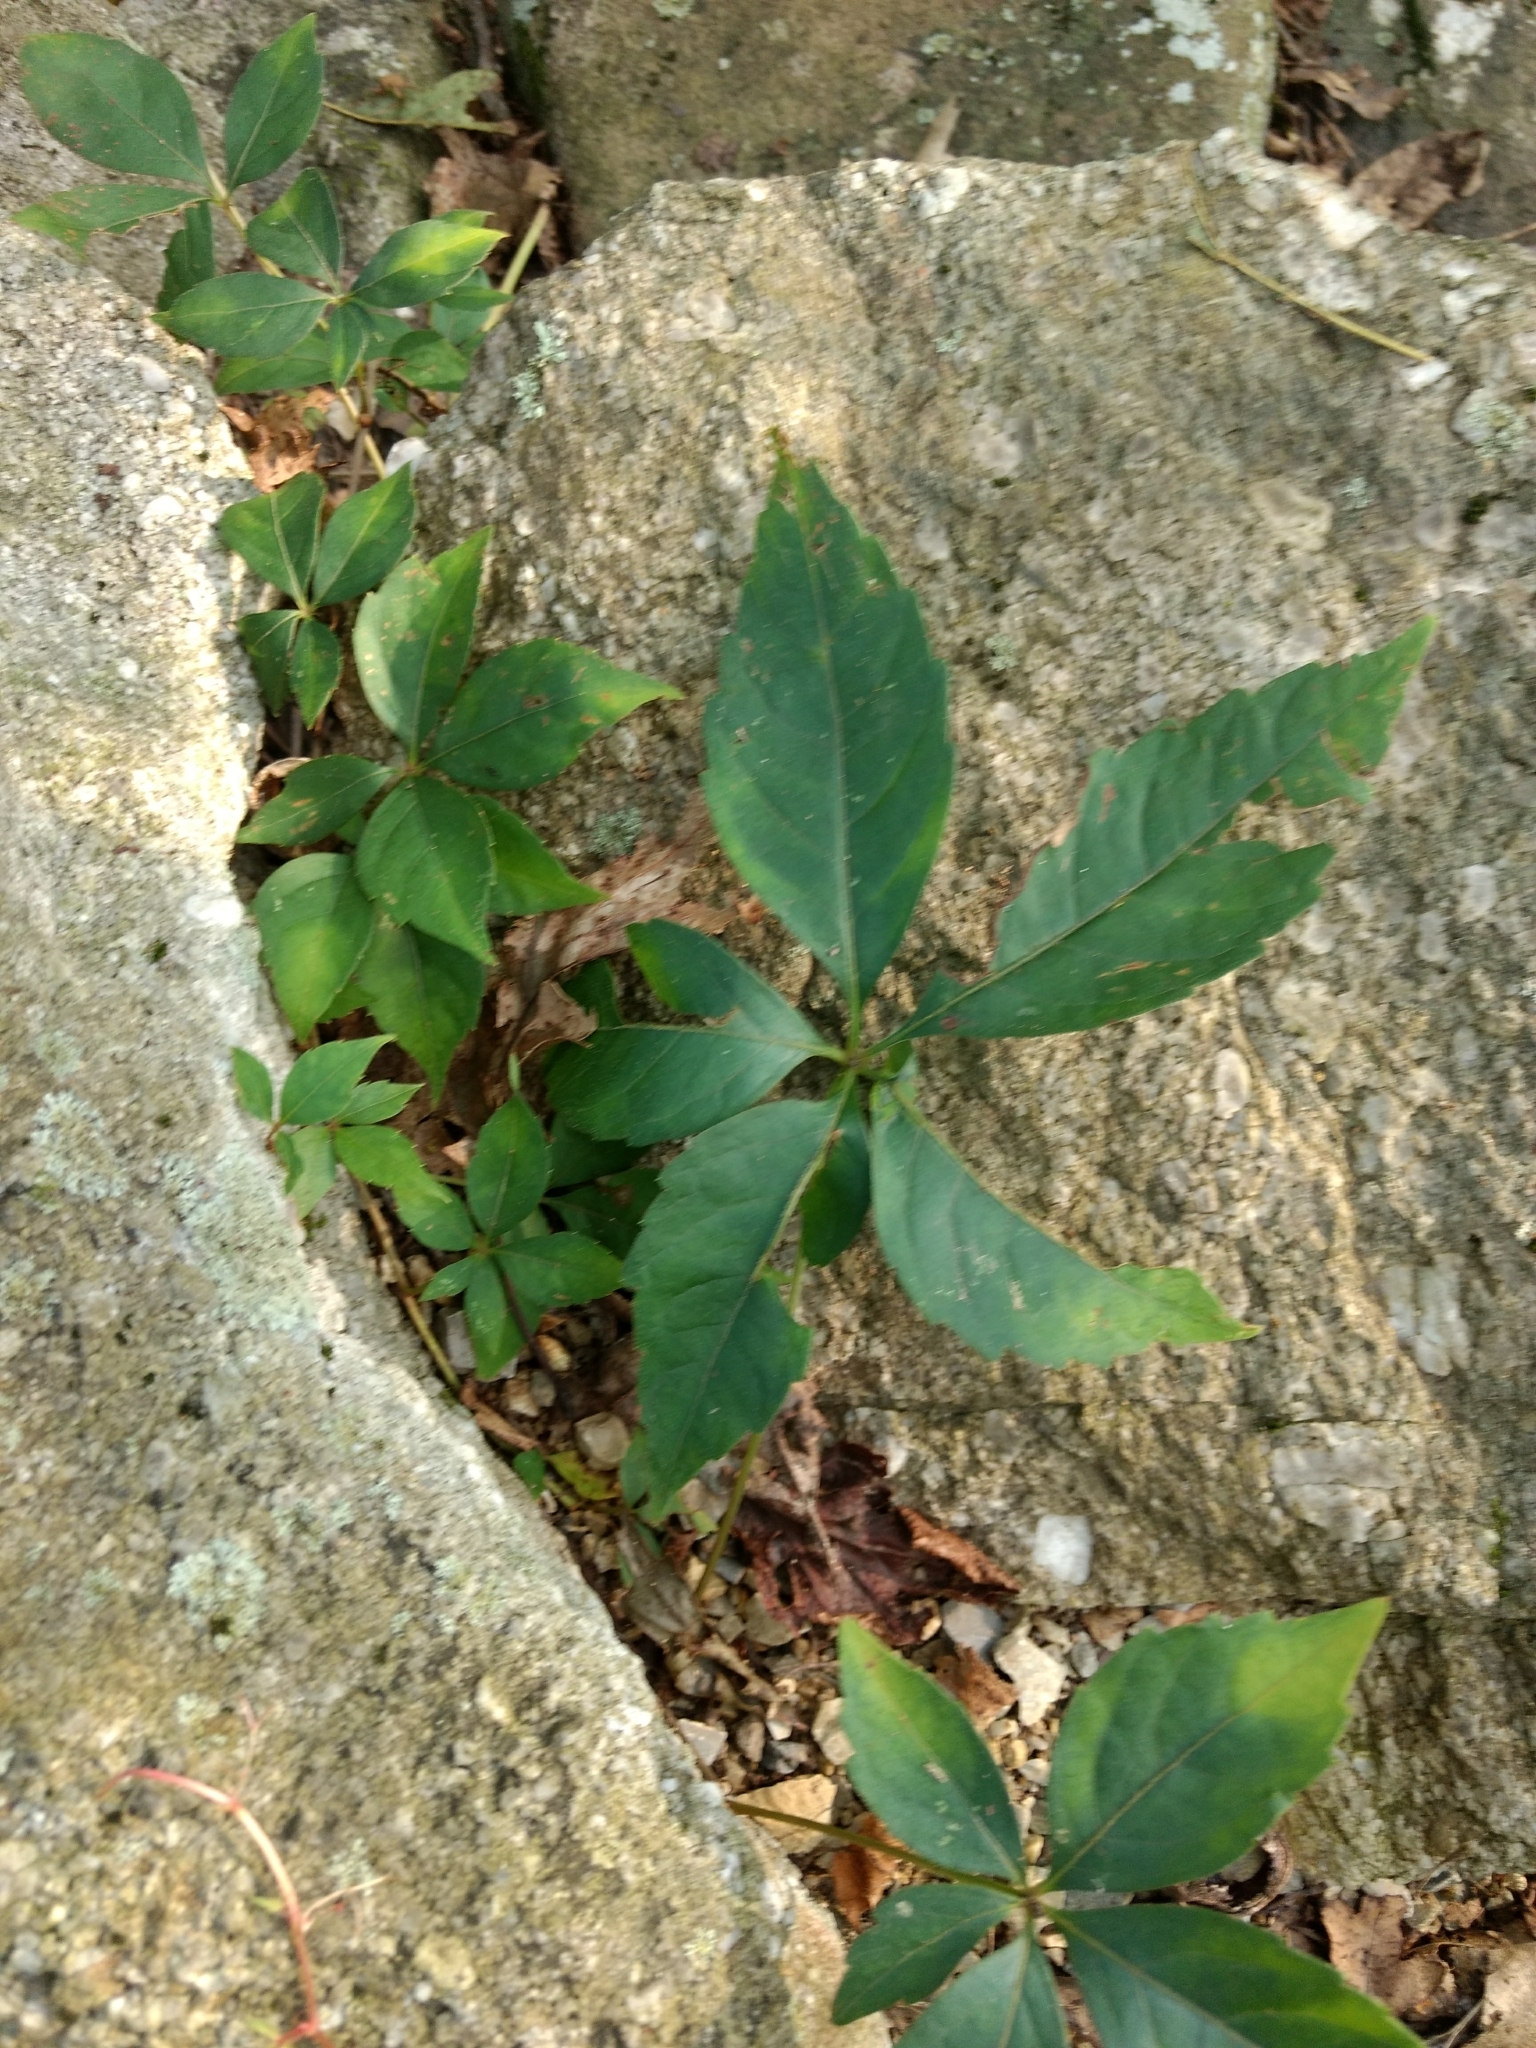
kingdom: Plantae
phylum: Tracheophyta
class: Magnoliopsida
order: Vitales
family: Vitaceae
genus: Parthenocissus
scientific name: Parthenocissus quinquefolia
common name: Virginia-creeper
